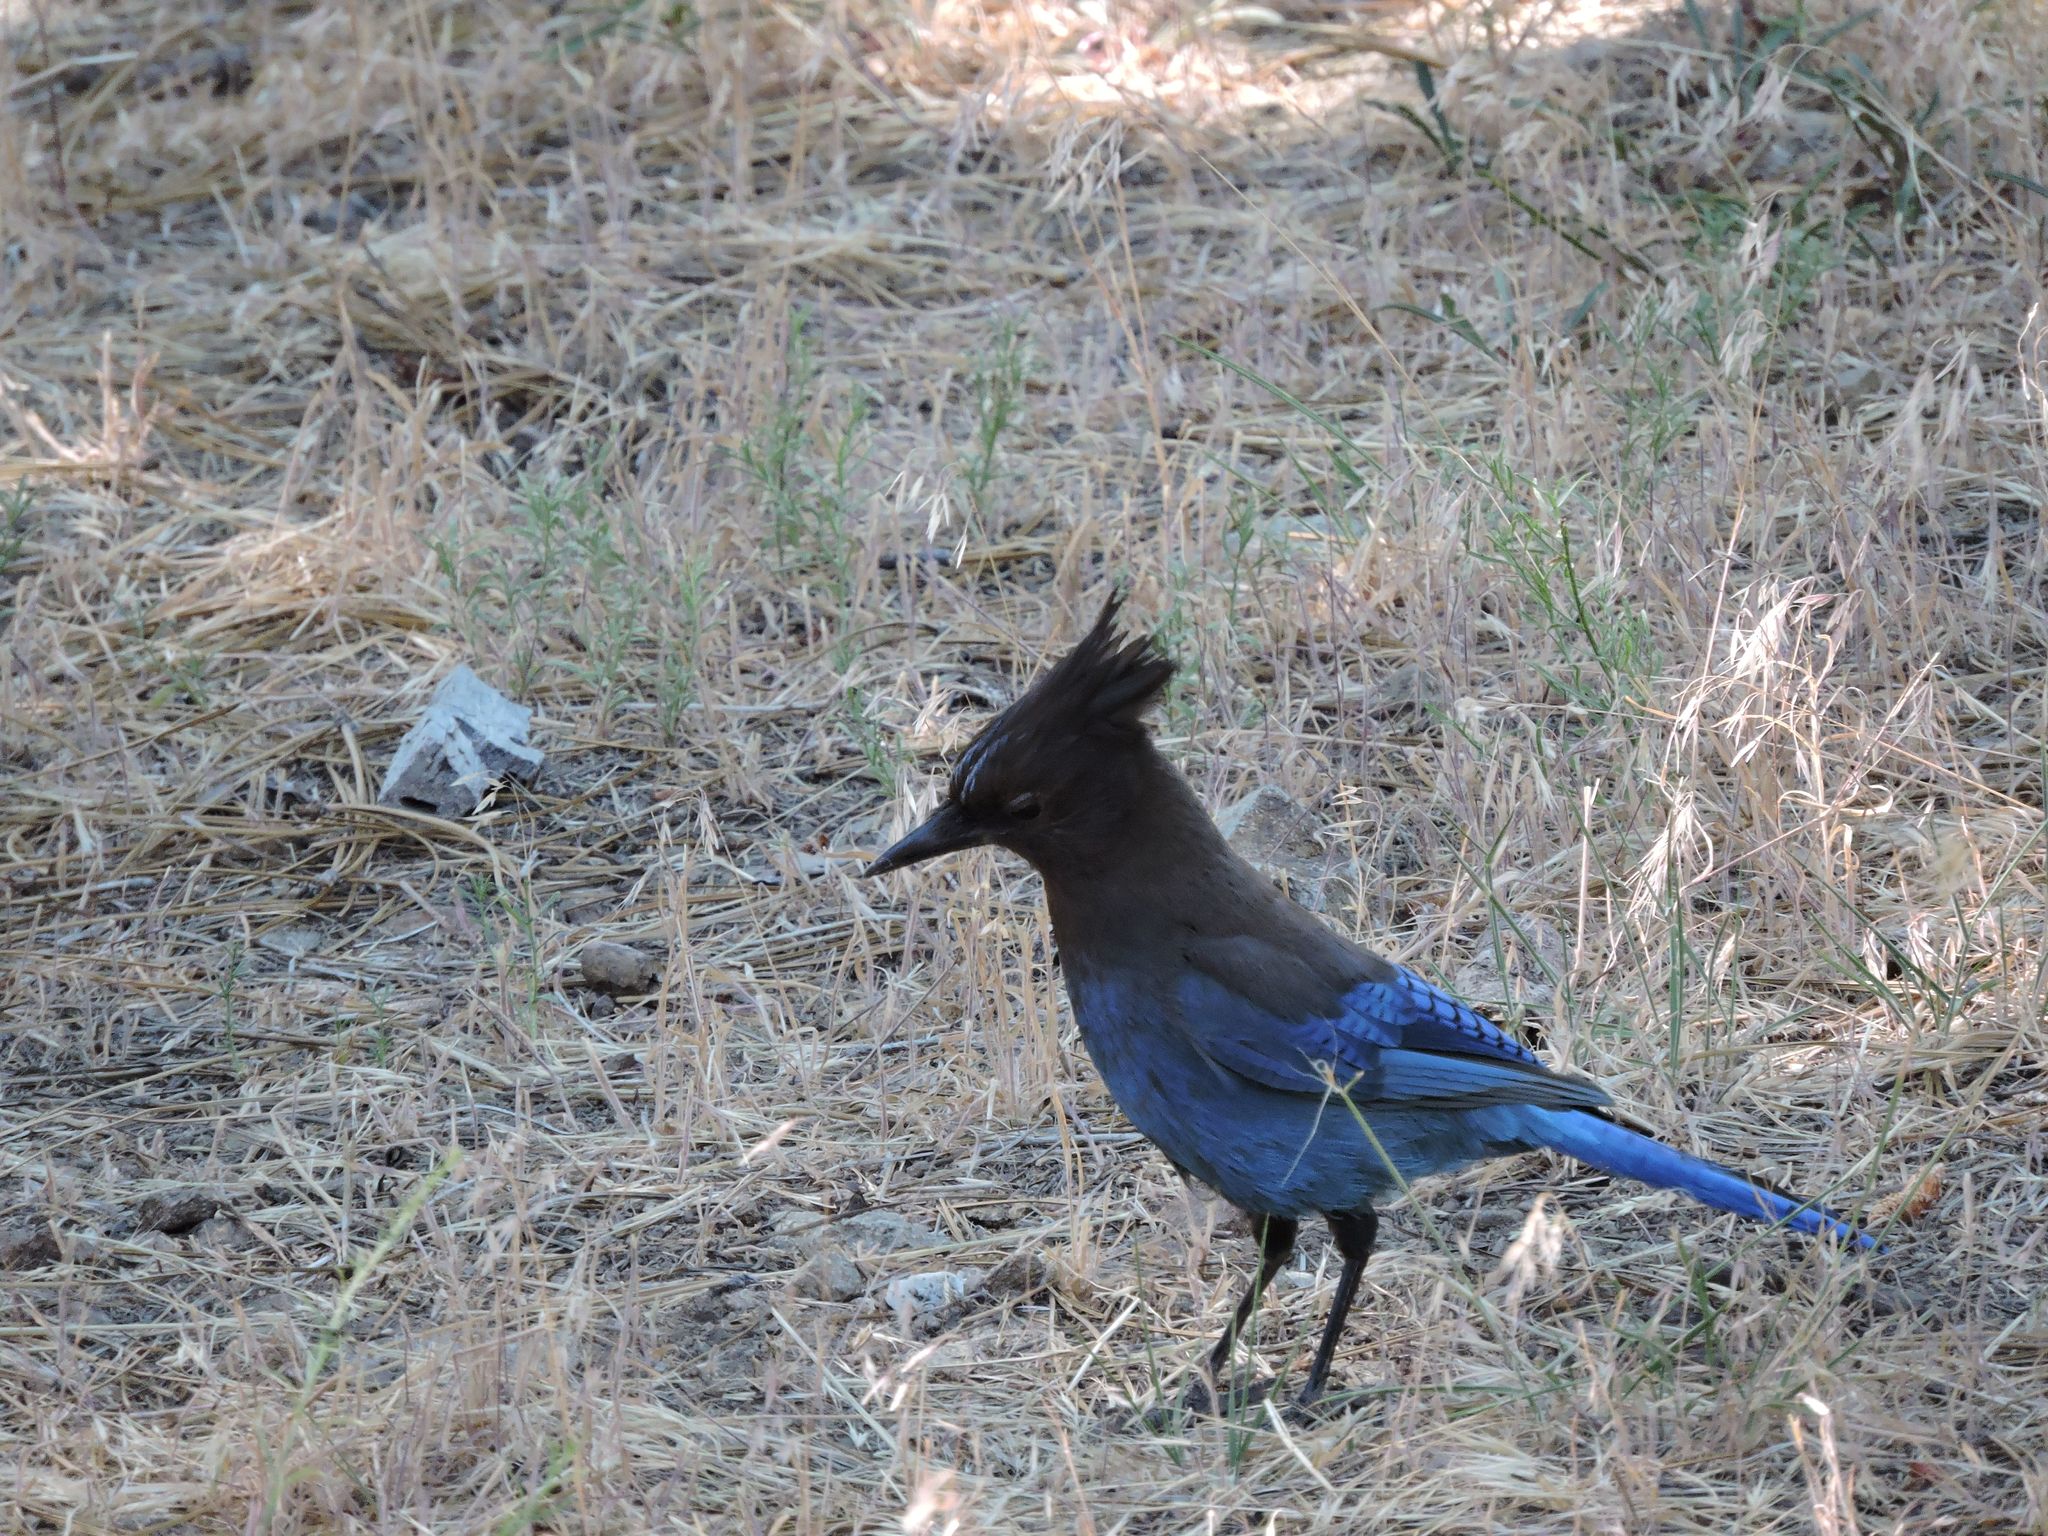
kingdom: Animalia
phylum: Chordata
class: Aves
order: Passeriformes
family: Corvidae
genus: Cyanocitta
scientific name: Cyanocitta stelleri
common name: Steller's jay
